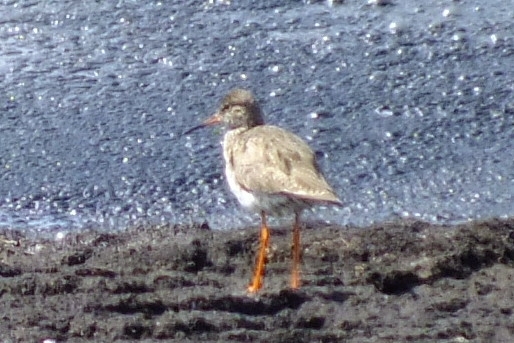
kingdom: Animalia
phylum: Chordata
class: Aves
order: Charadriiformes
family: Scolopacidae
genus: Tringa
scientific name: Tringa totanus
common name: Common redshank
